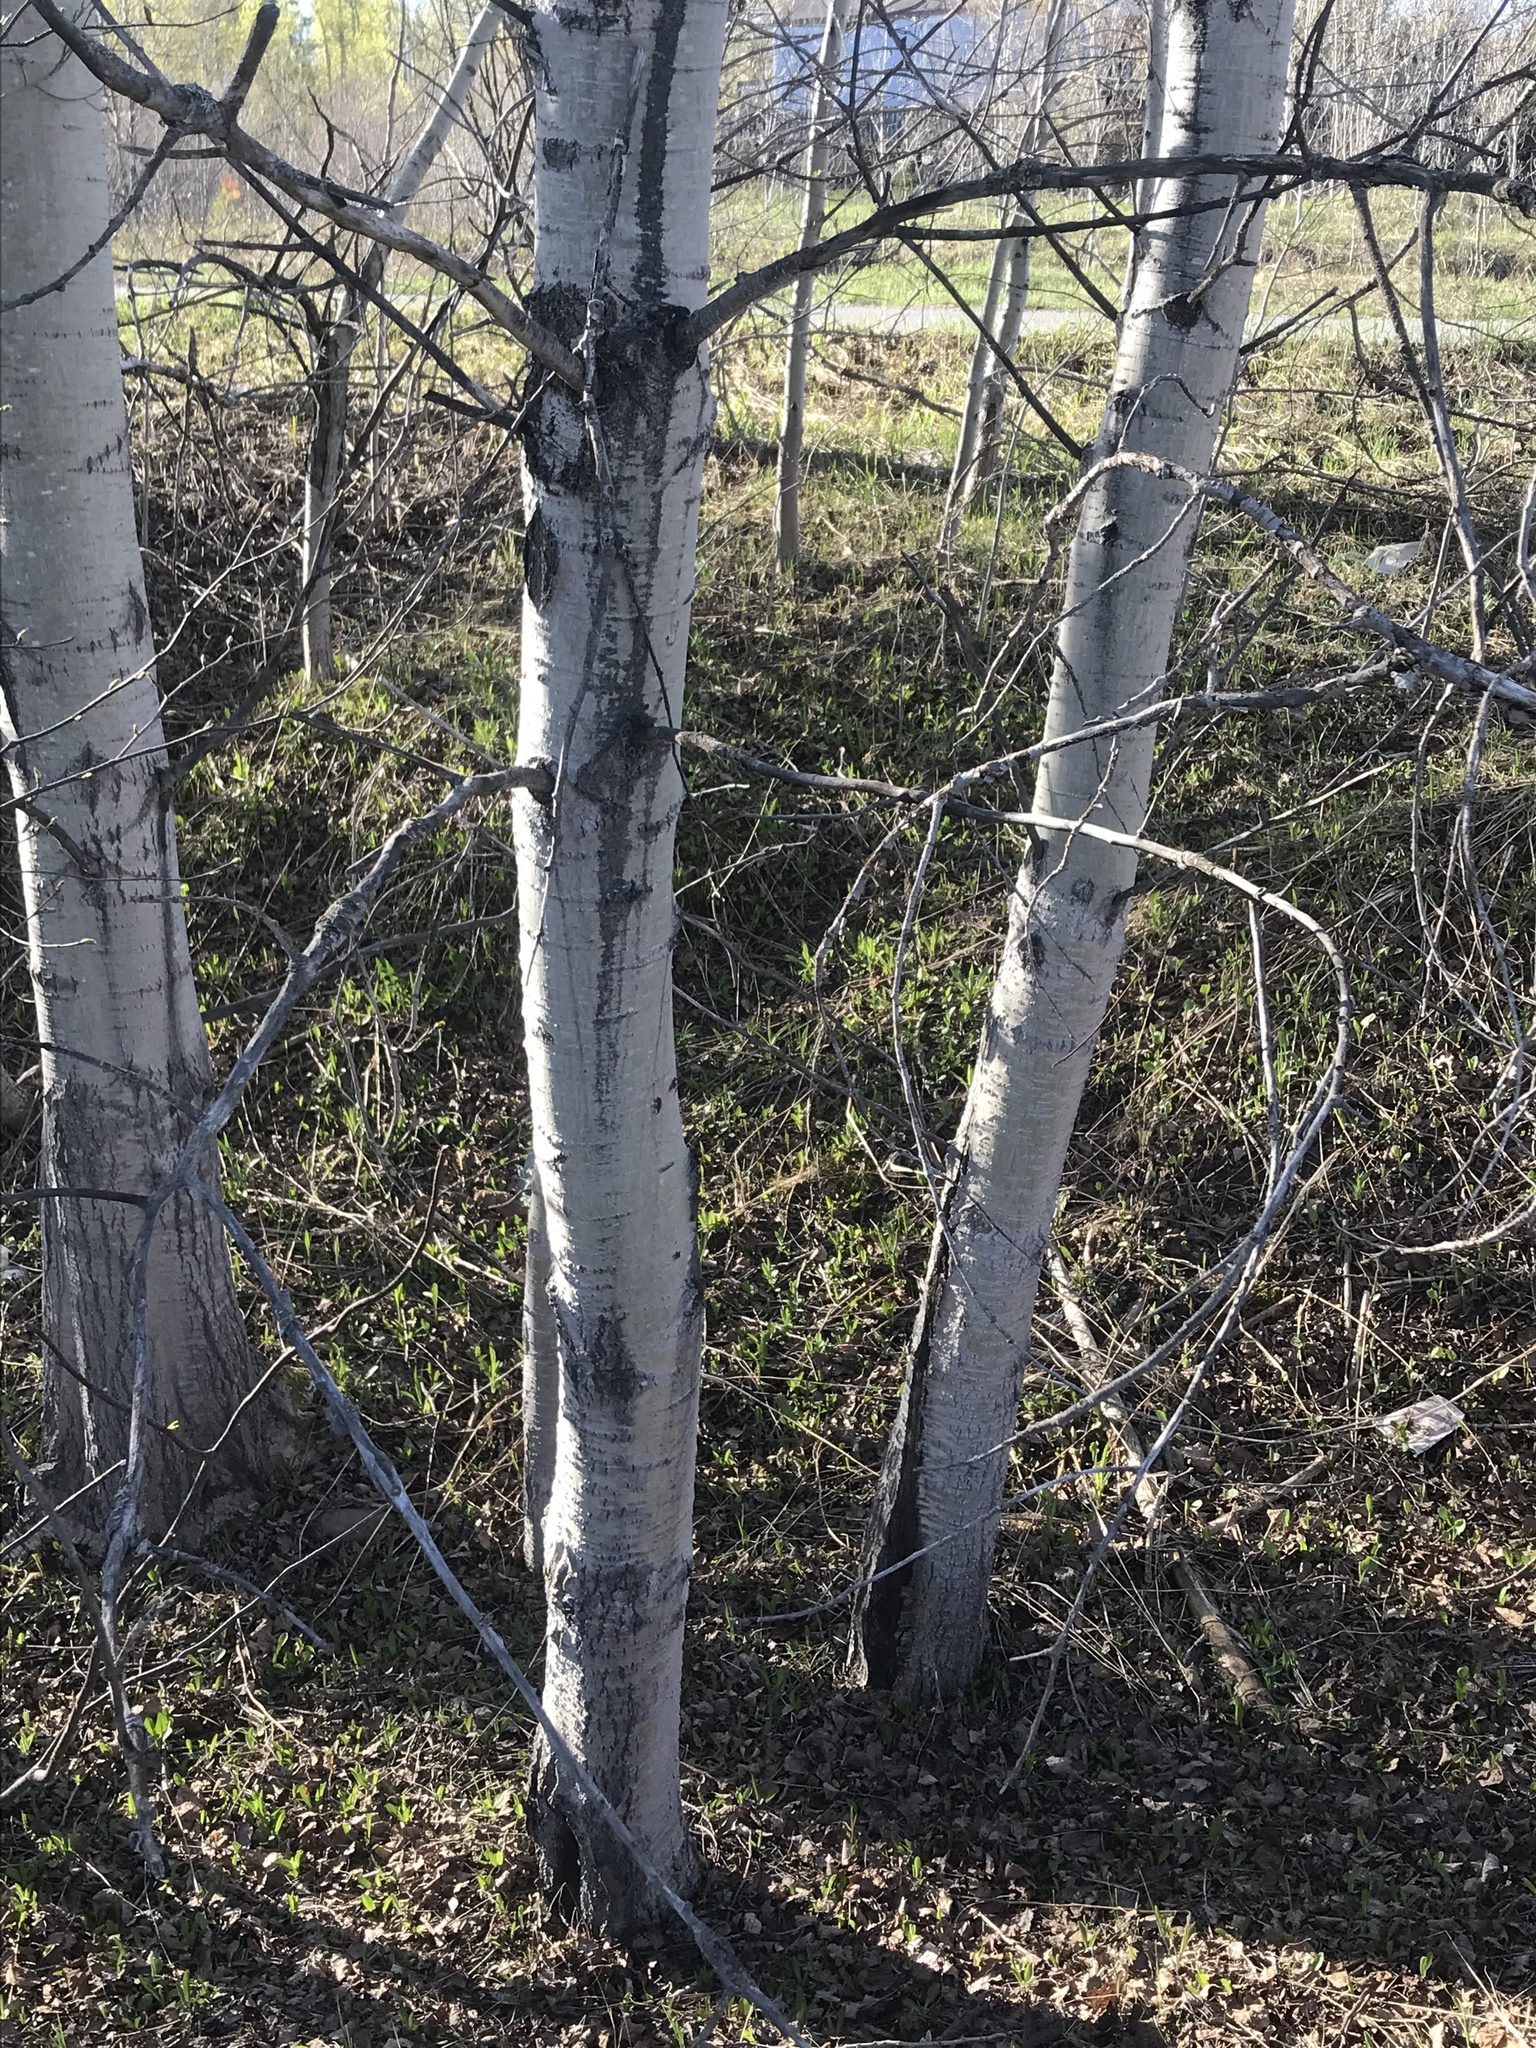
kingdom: Plantae
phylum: Tracheophyta
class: Magnoliopsida
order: Malpighiales
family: Salicaceae
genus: Populus
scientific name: Populus tremuloides
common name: Quaking aspen
